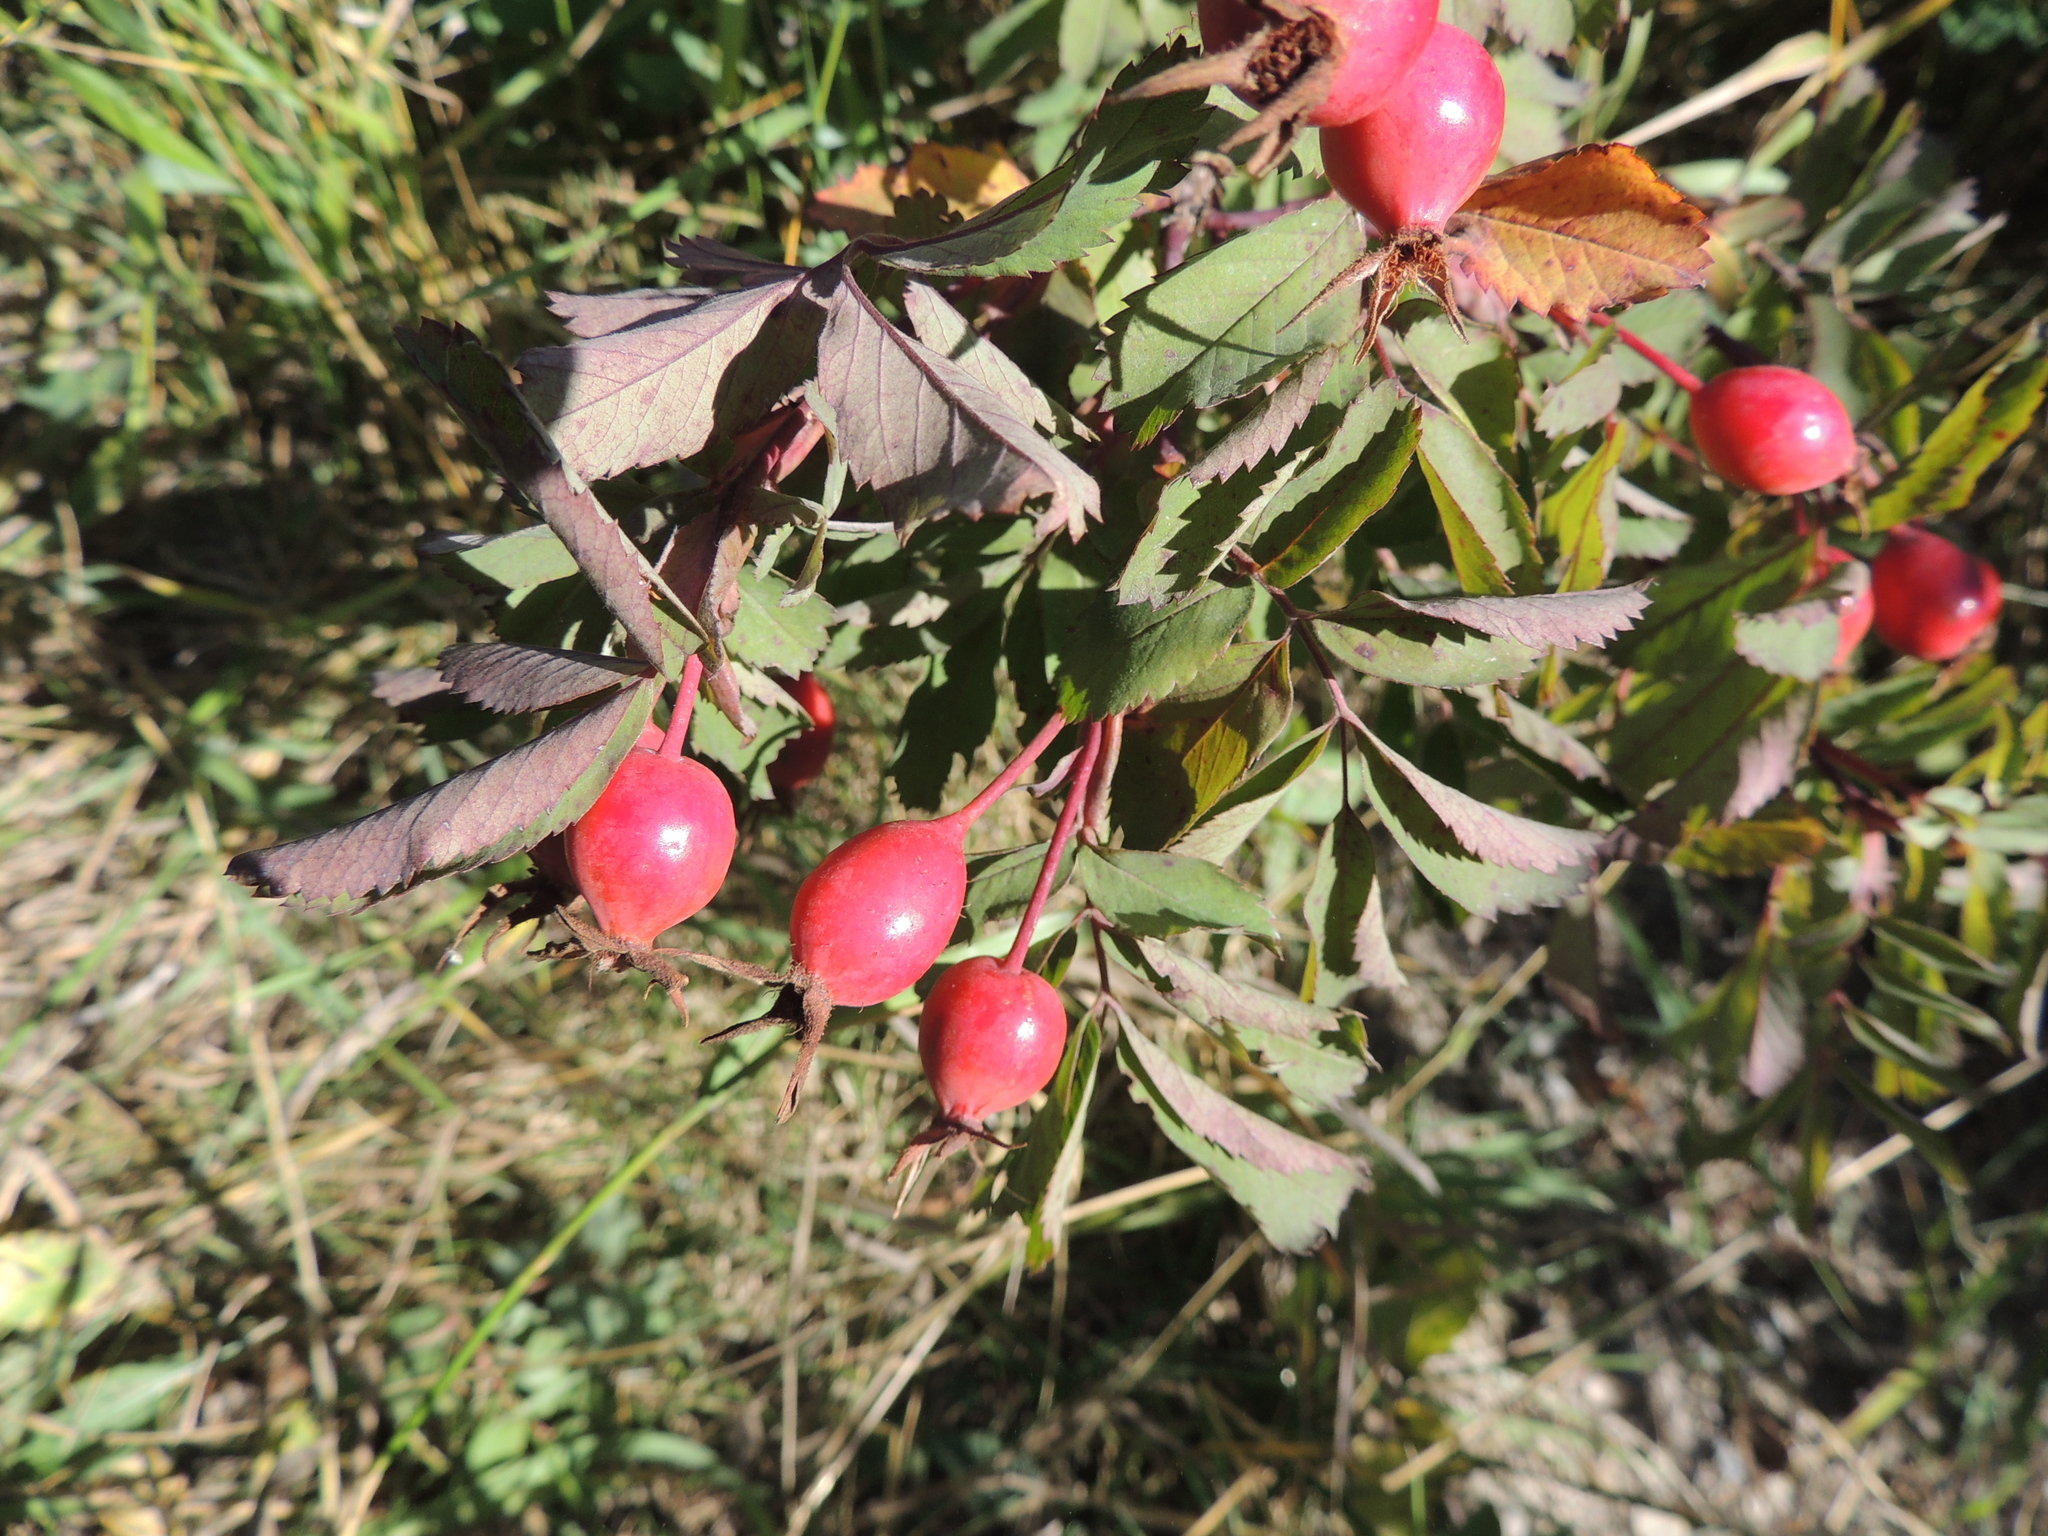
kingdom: Plantae
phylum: Tracheophyta
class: Magnoliopsida
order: Rosales
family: Rosaceae
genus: Rosa
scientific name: Rosa arkansana
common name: Prairie rose
